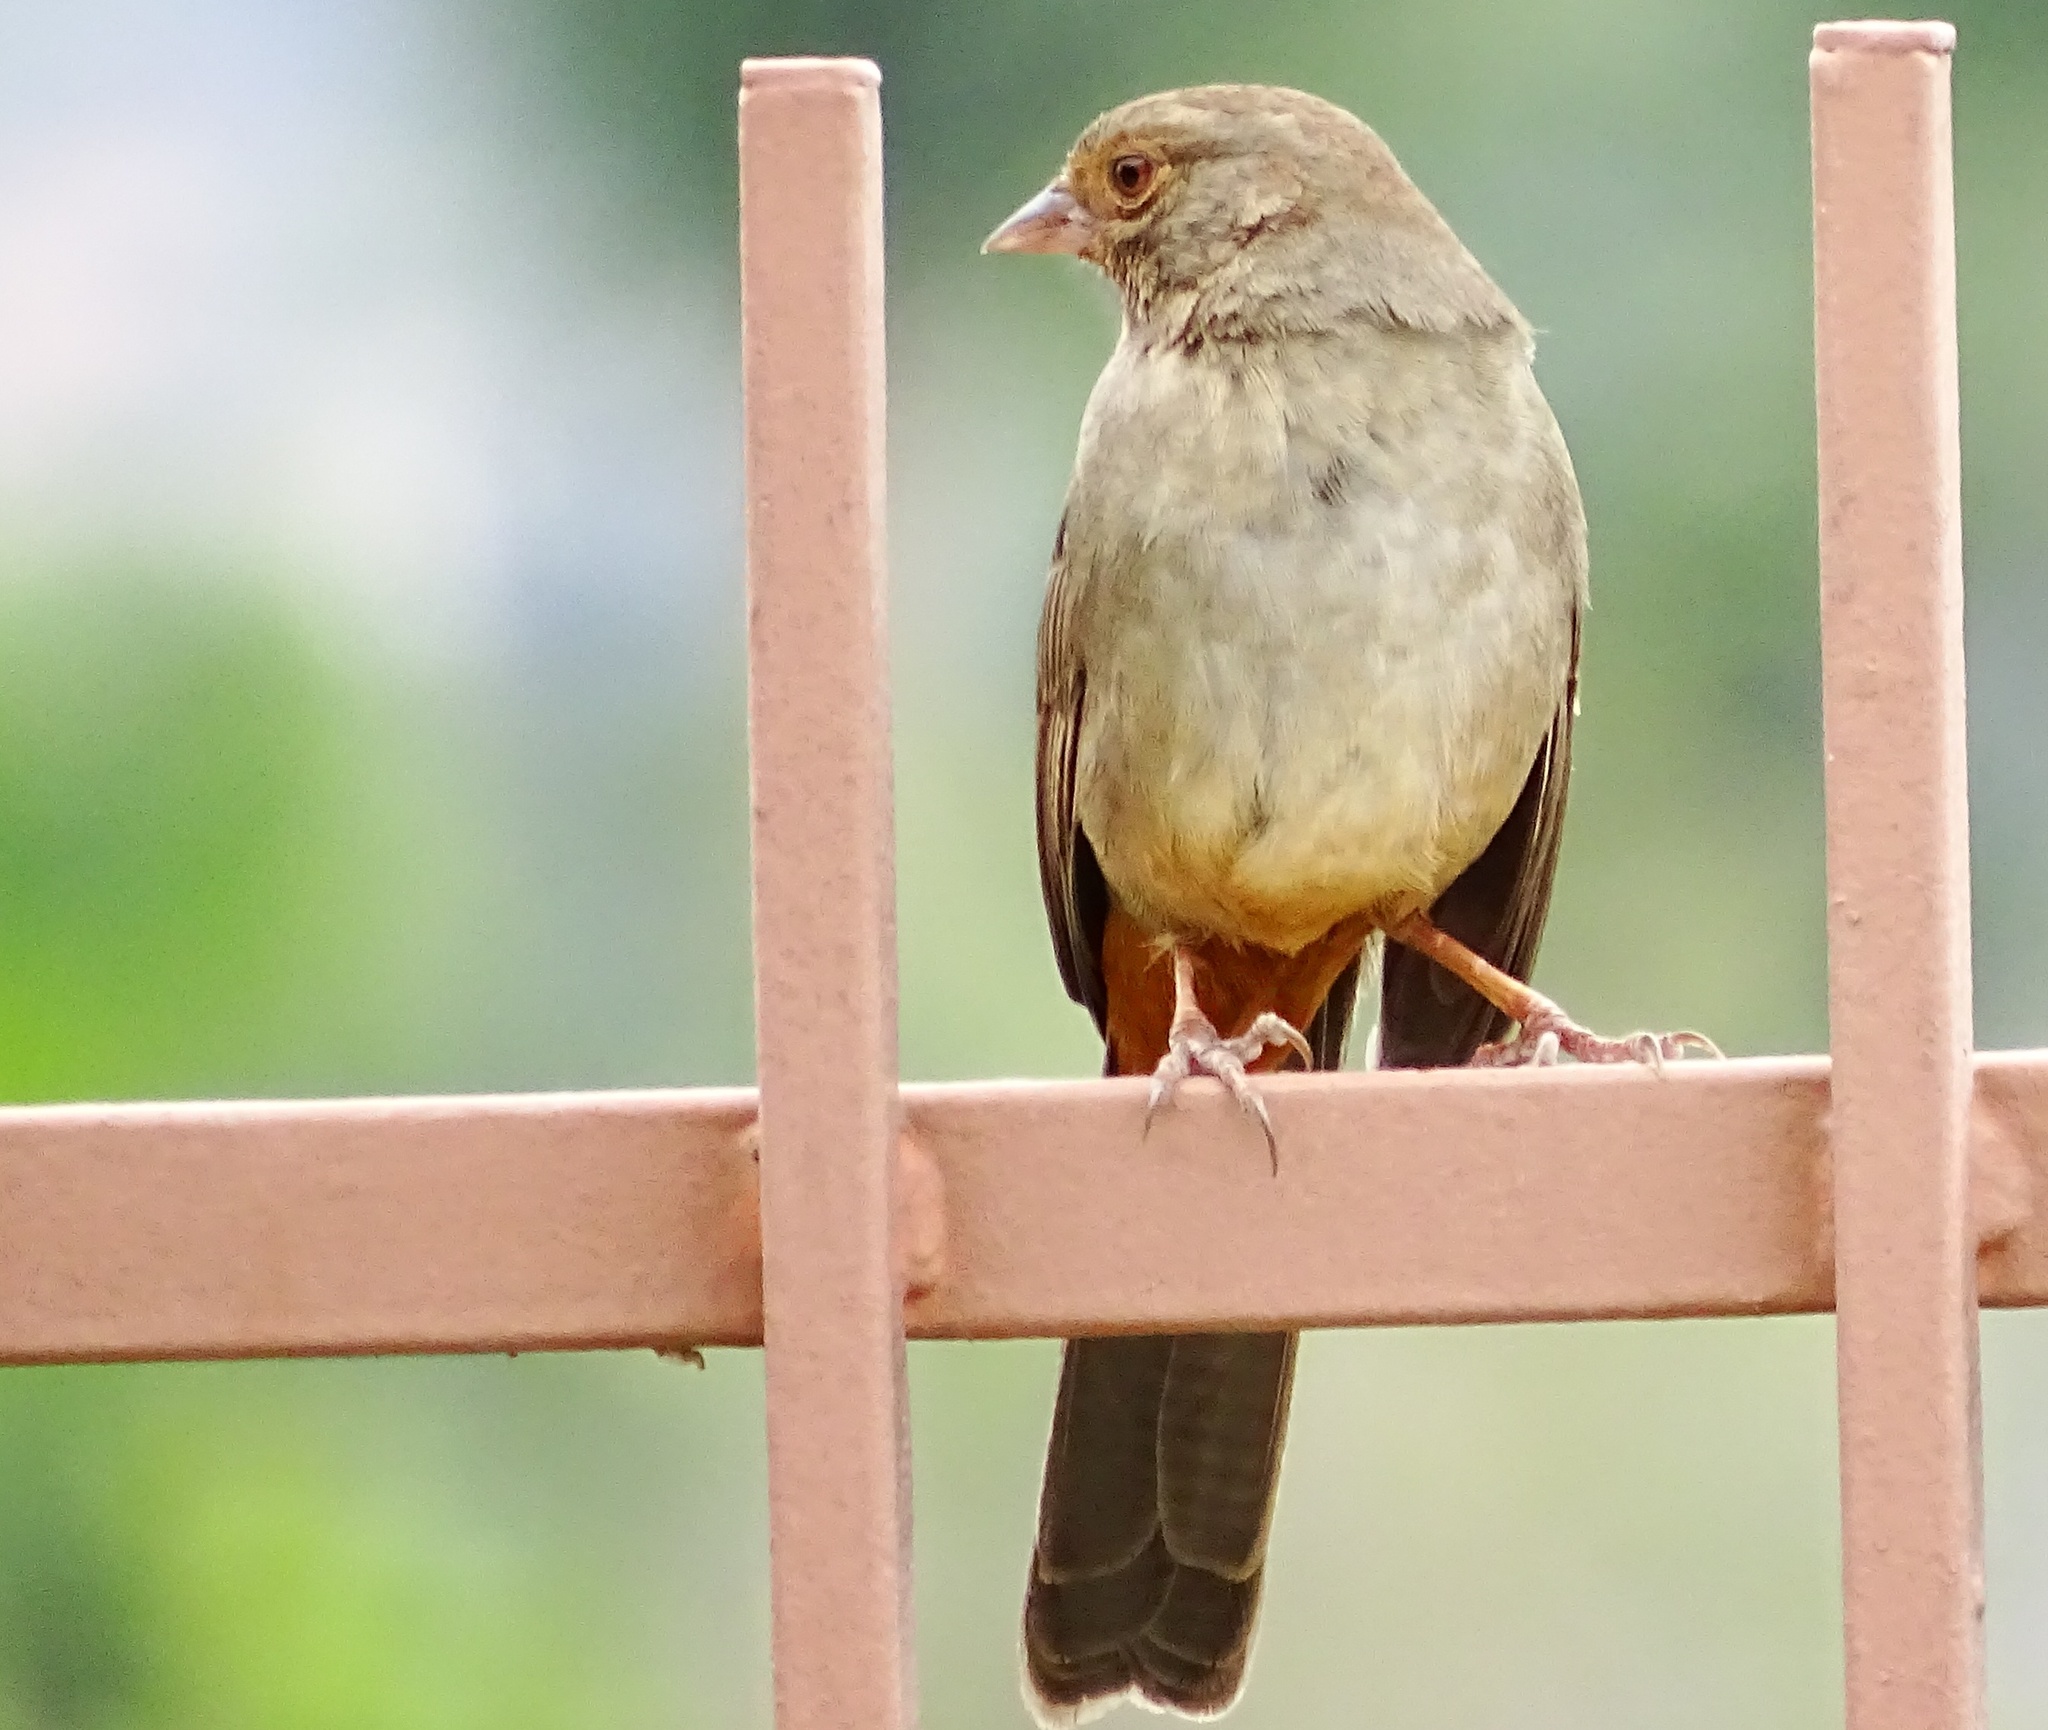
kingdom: Animalia
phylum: Chordata
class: Aves
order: Passeriformes
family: Passerellidae
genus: Melozone
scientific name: Melozone crissalis
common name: California towhee
